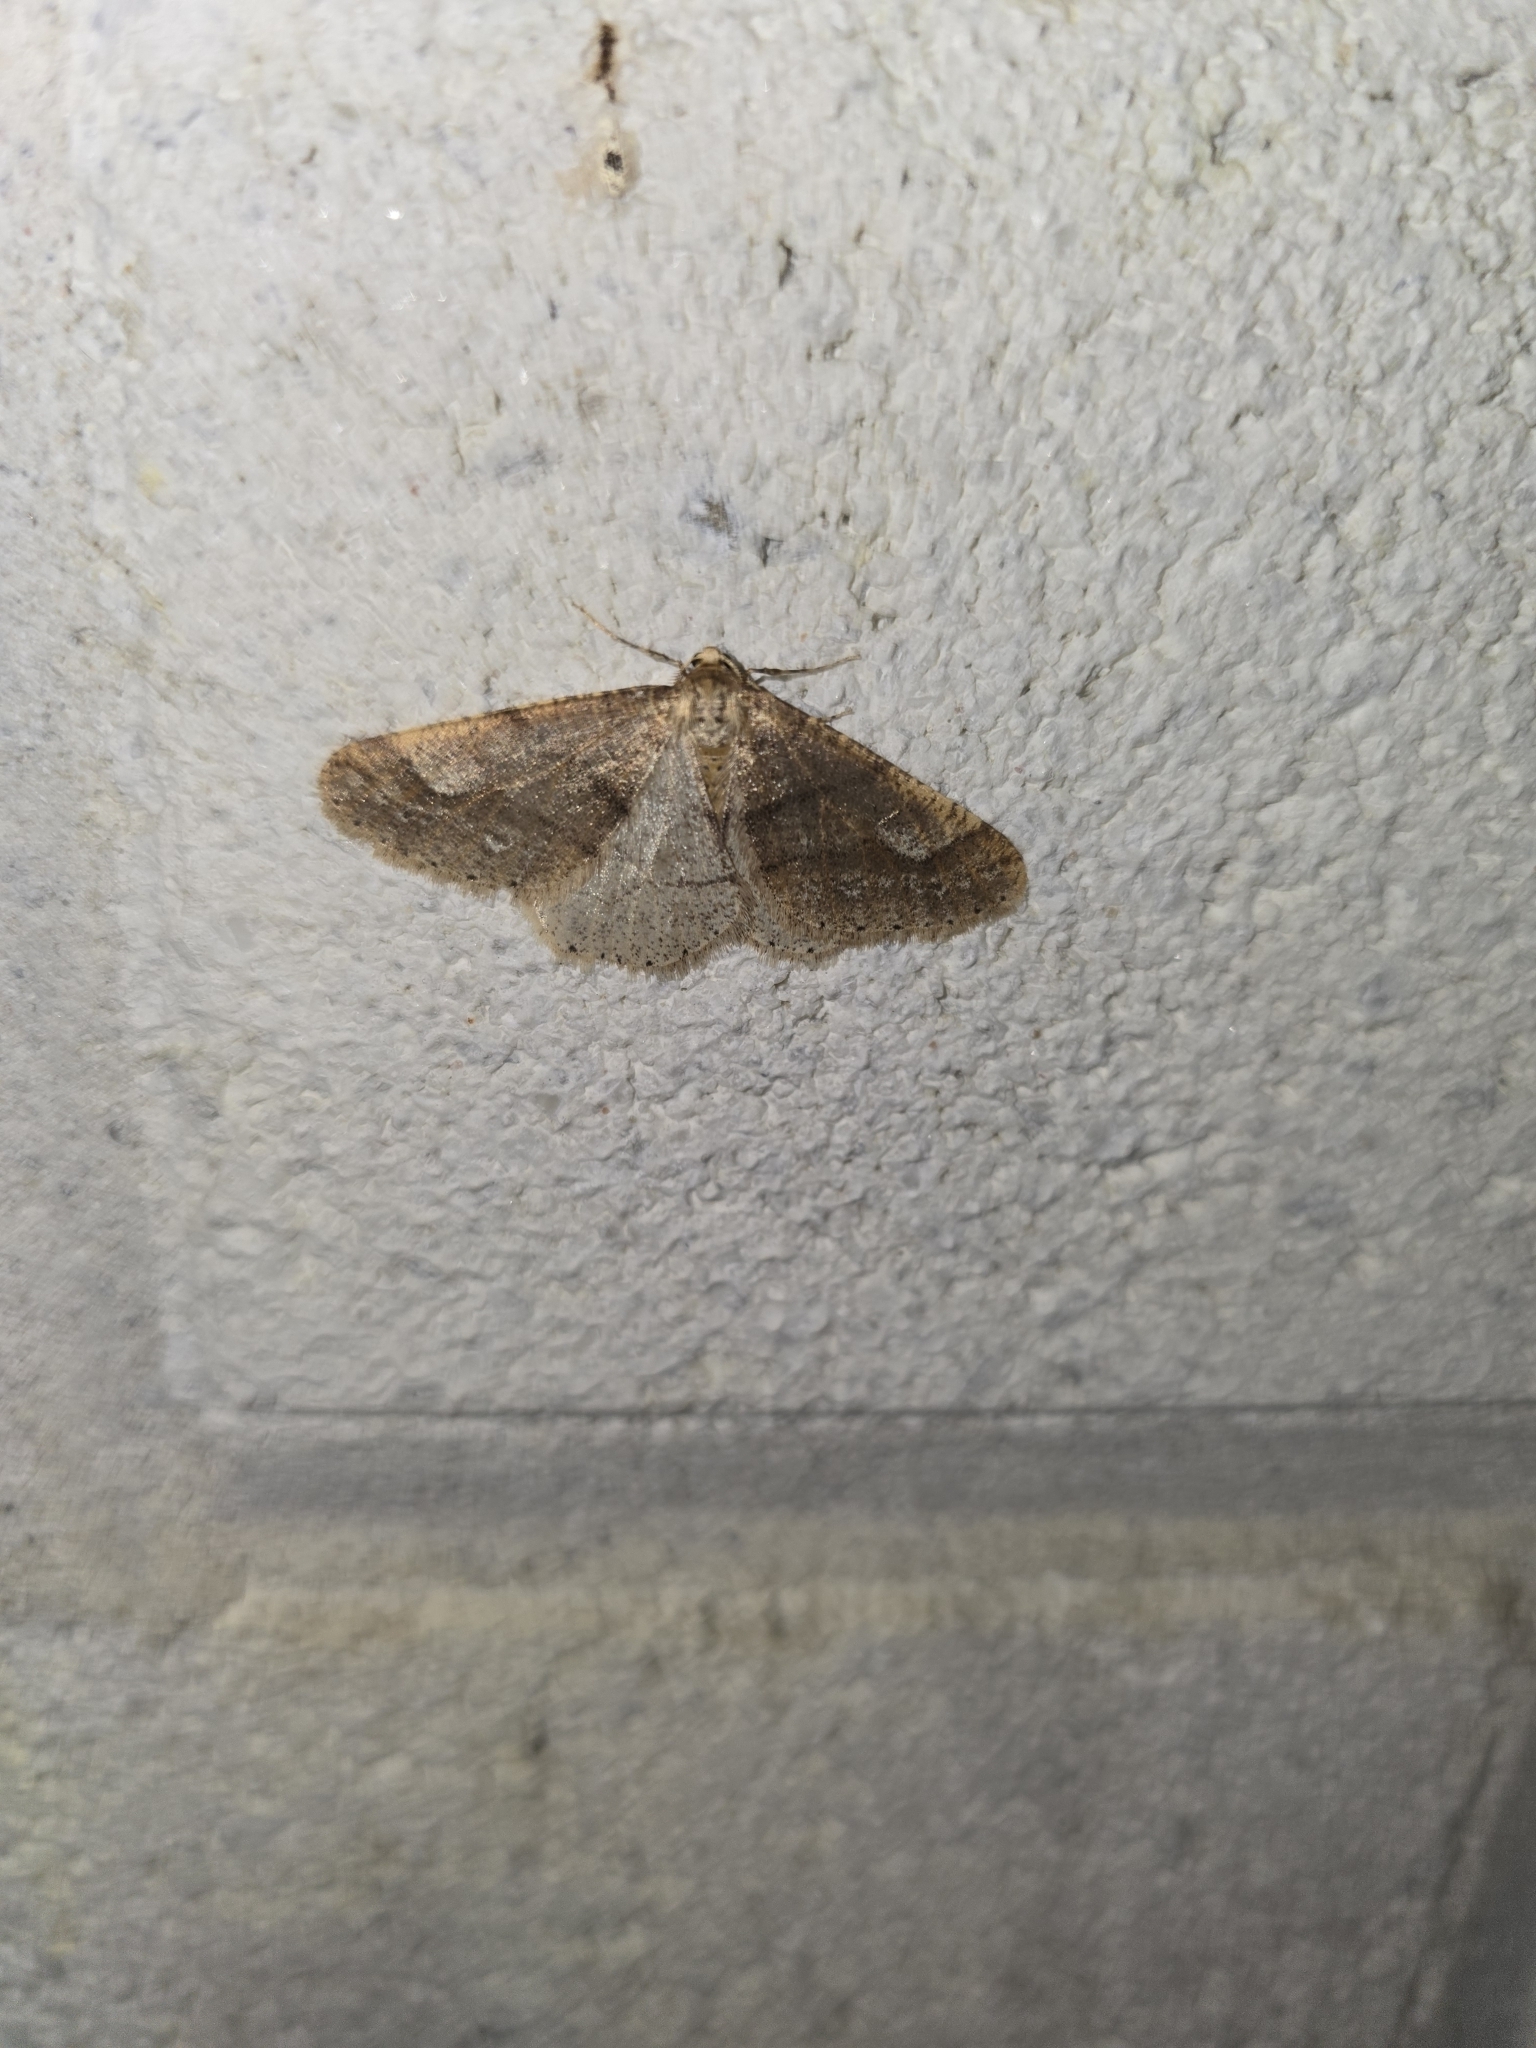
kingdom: Animalia
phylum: Arthropoda
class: Insecta
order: Lepidoptera
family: Geometridae
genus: Agriopis
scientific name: Agriopis marginaria
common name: Dotted border
